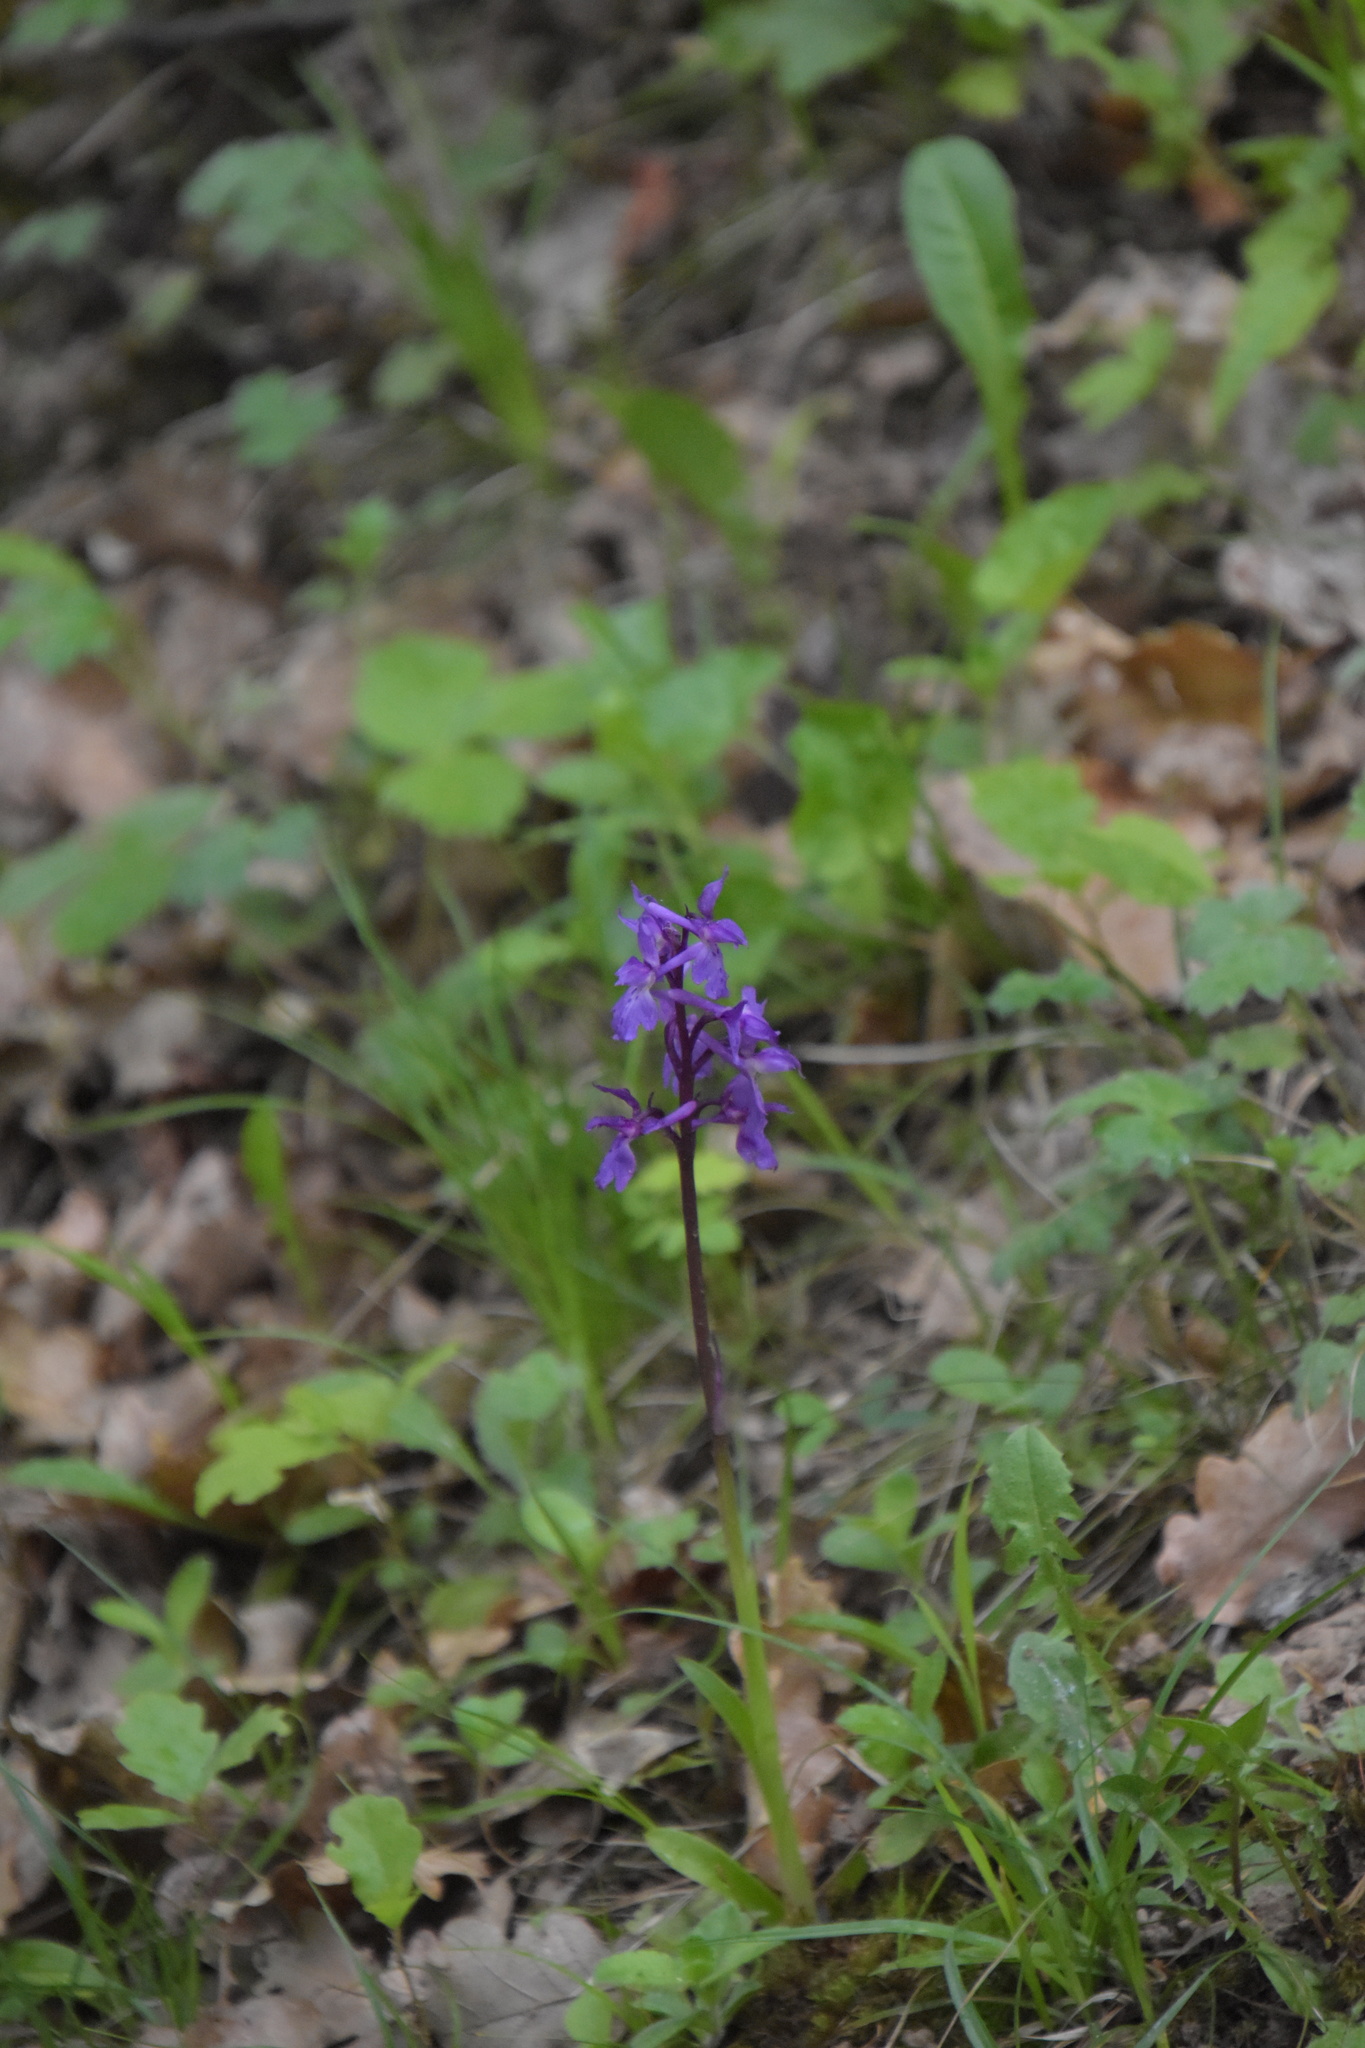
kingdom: Plantae
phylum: Tracheophyta
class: Liliopsida
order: Asparagales
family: Orchidaceae
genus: Orchis
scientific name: Orchis mascula
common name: Early-purple orchid
